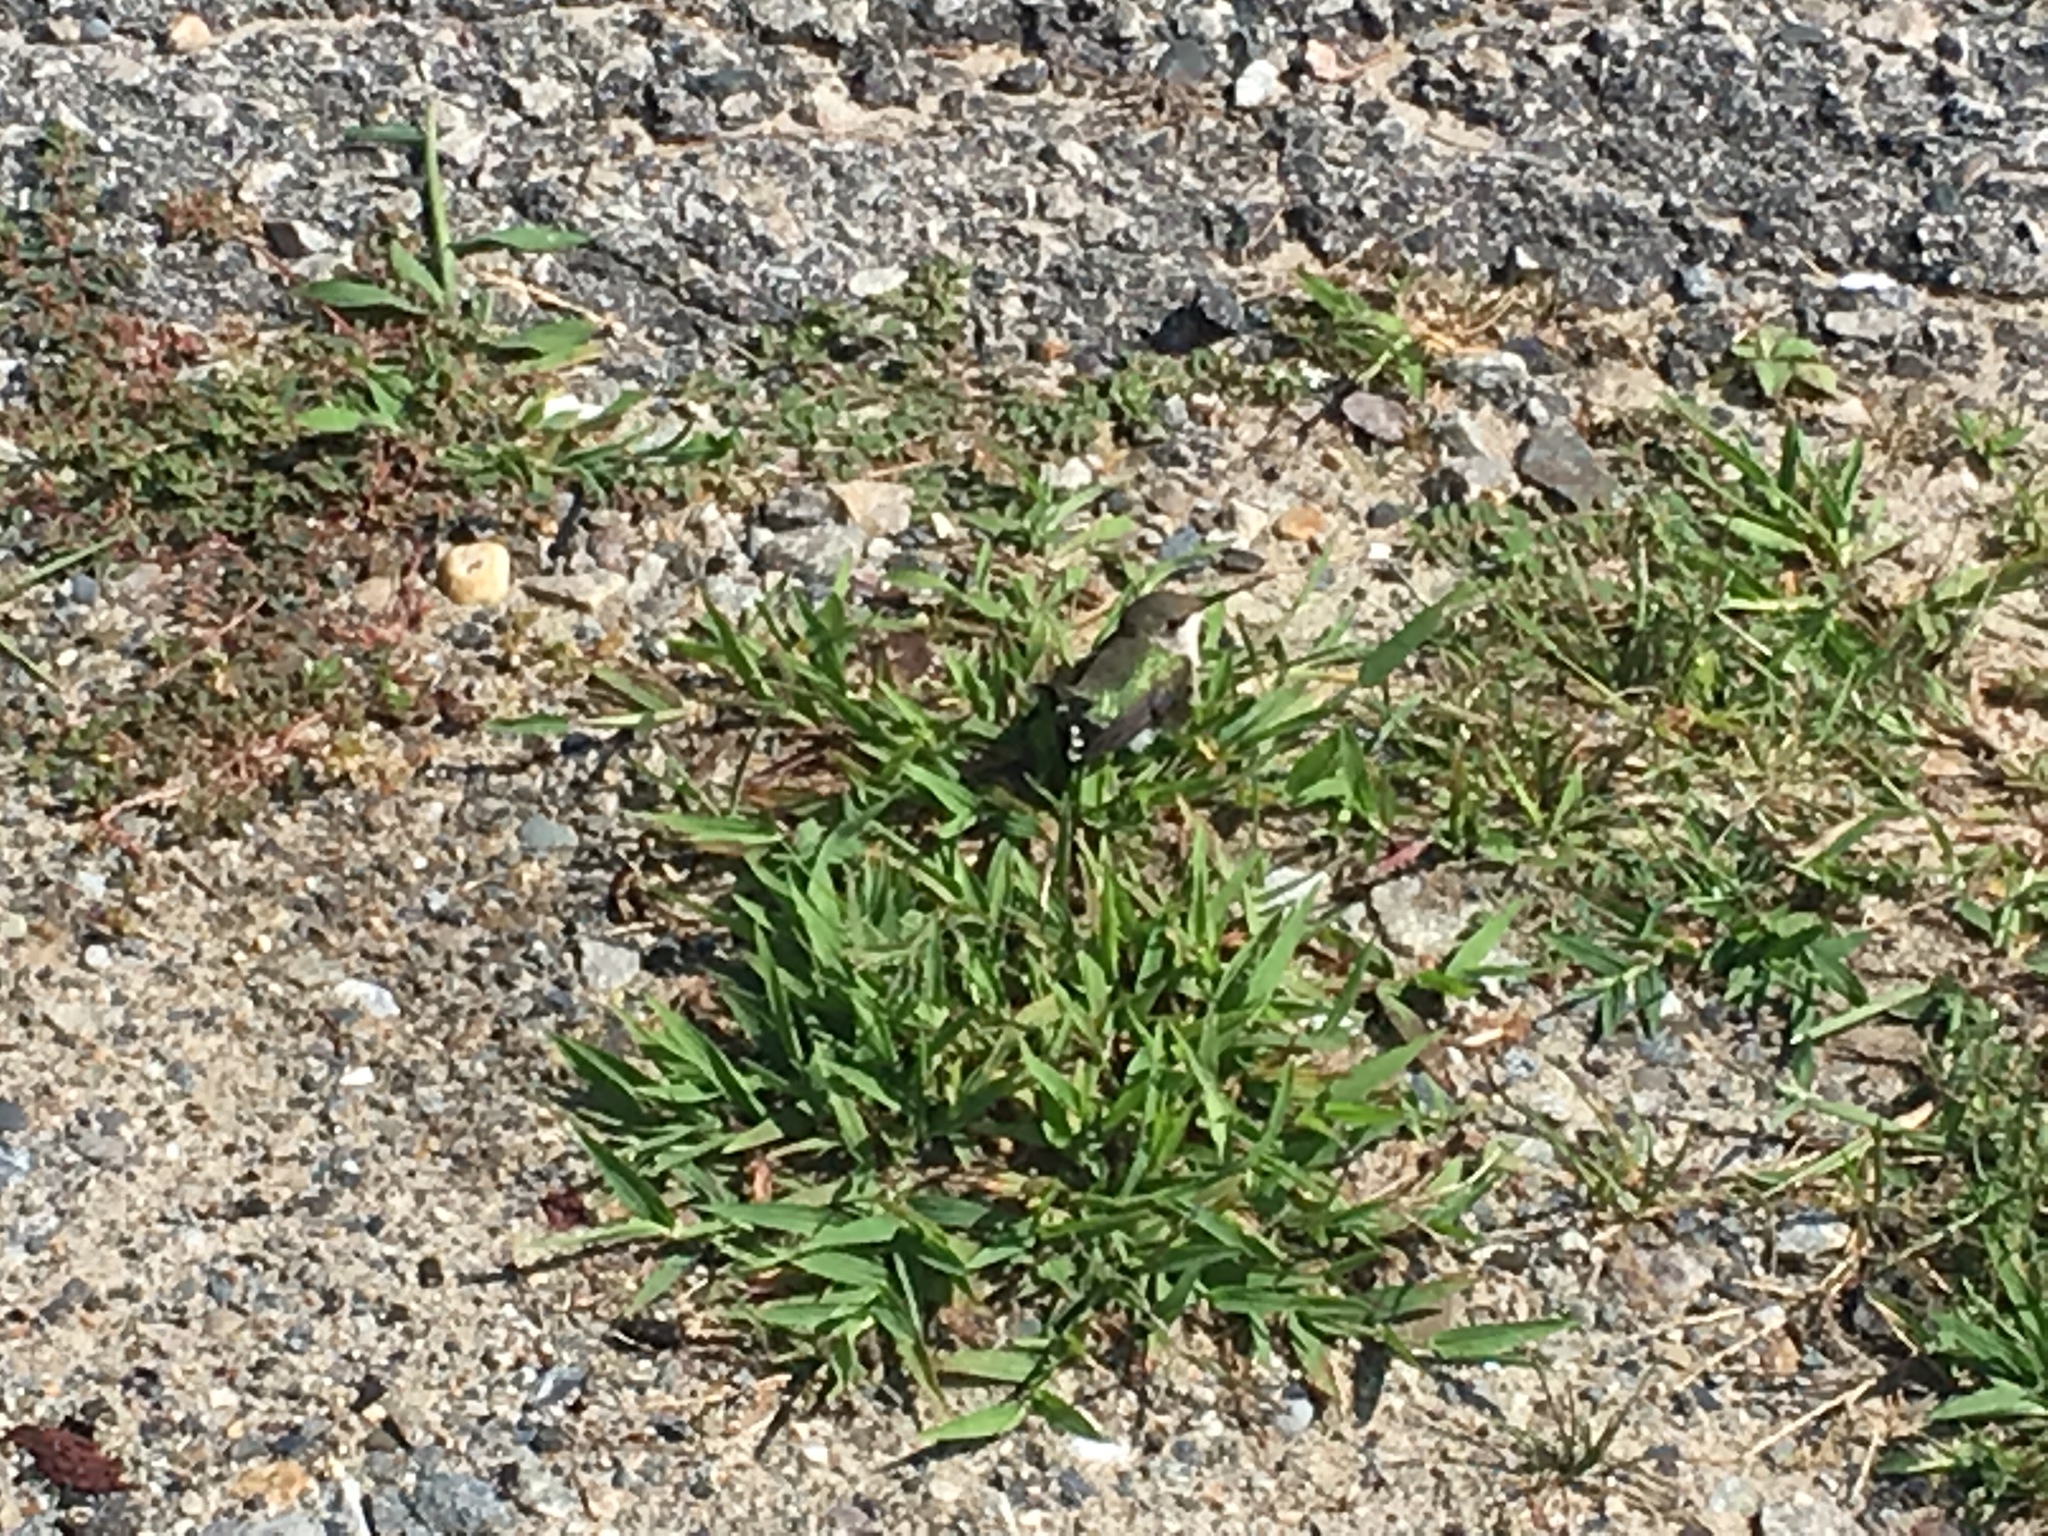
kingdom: Animalia
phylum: Chordata
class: Aves
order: Apodiformes
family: Trochilidae
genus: Archilochus
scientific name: Archilochus colubris
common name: Ruby-throated hummingbird
